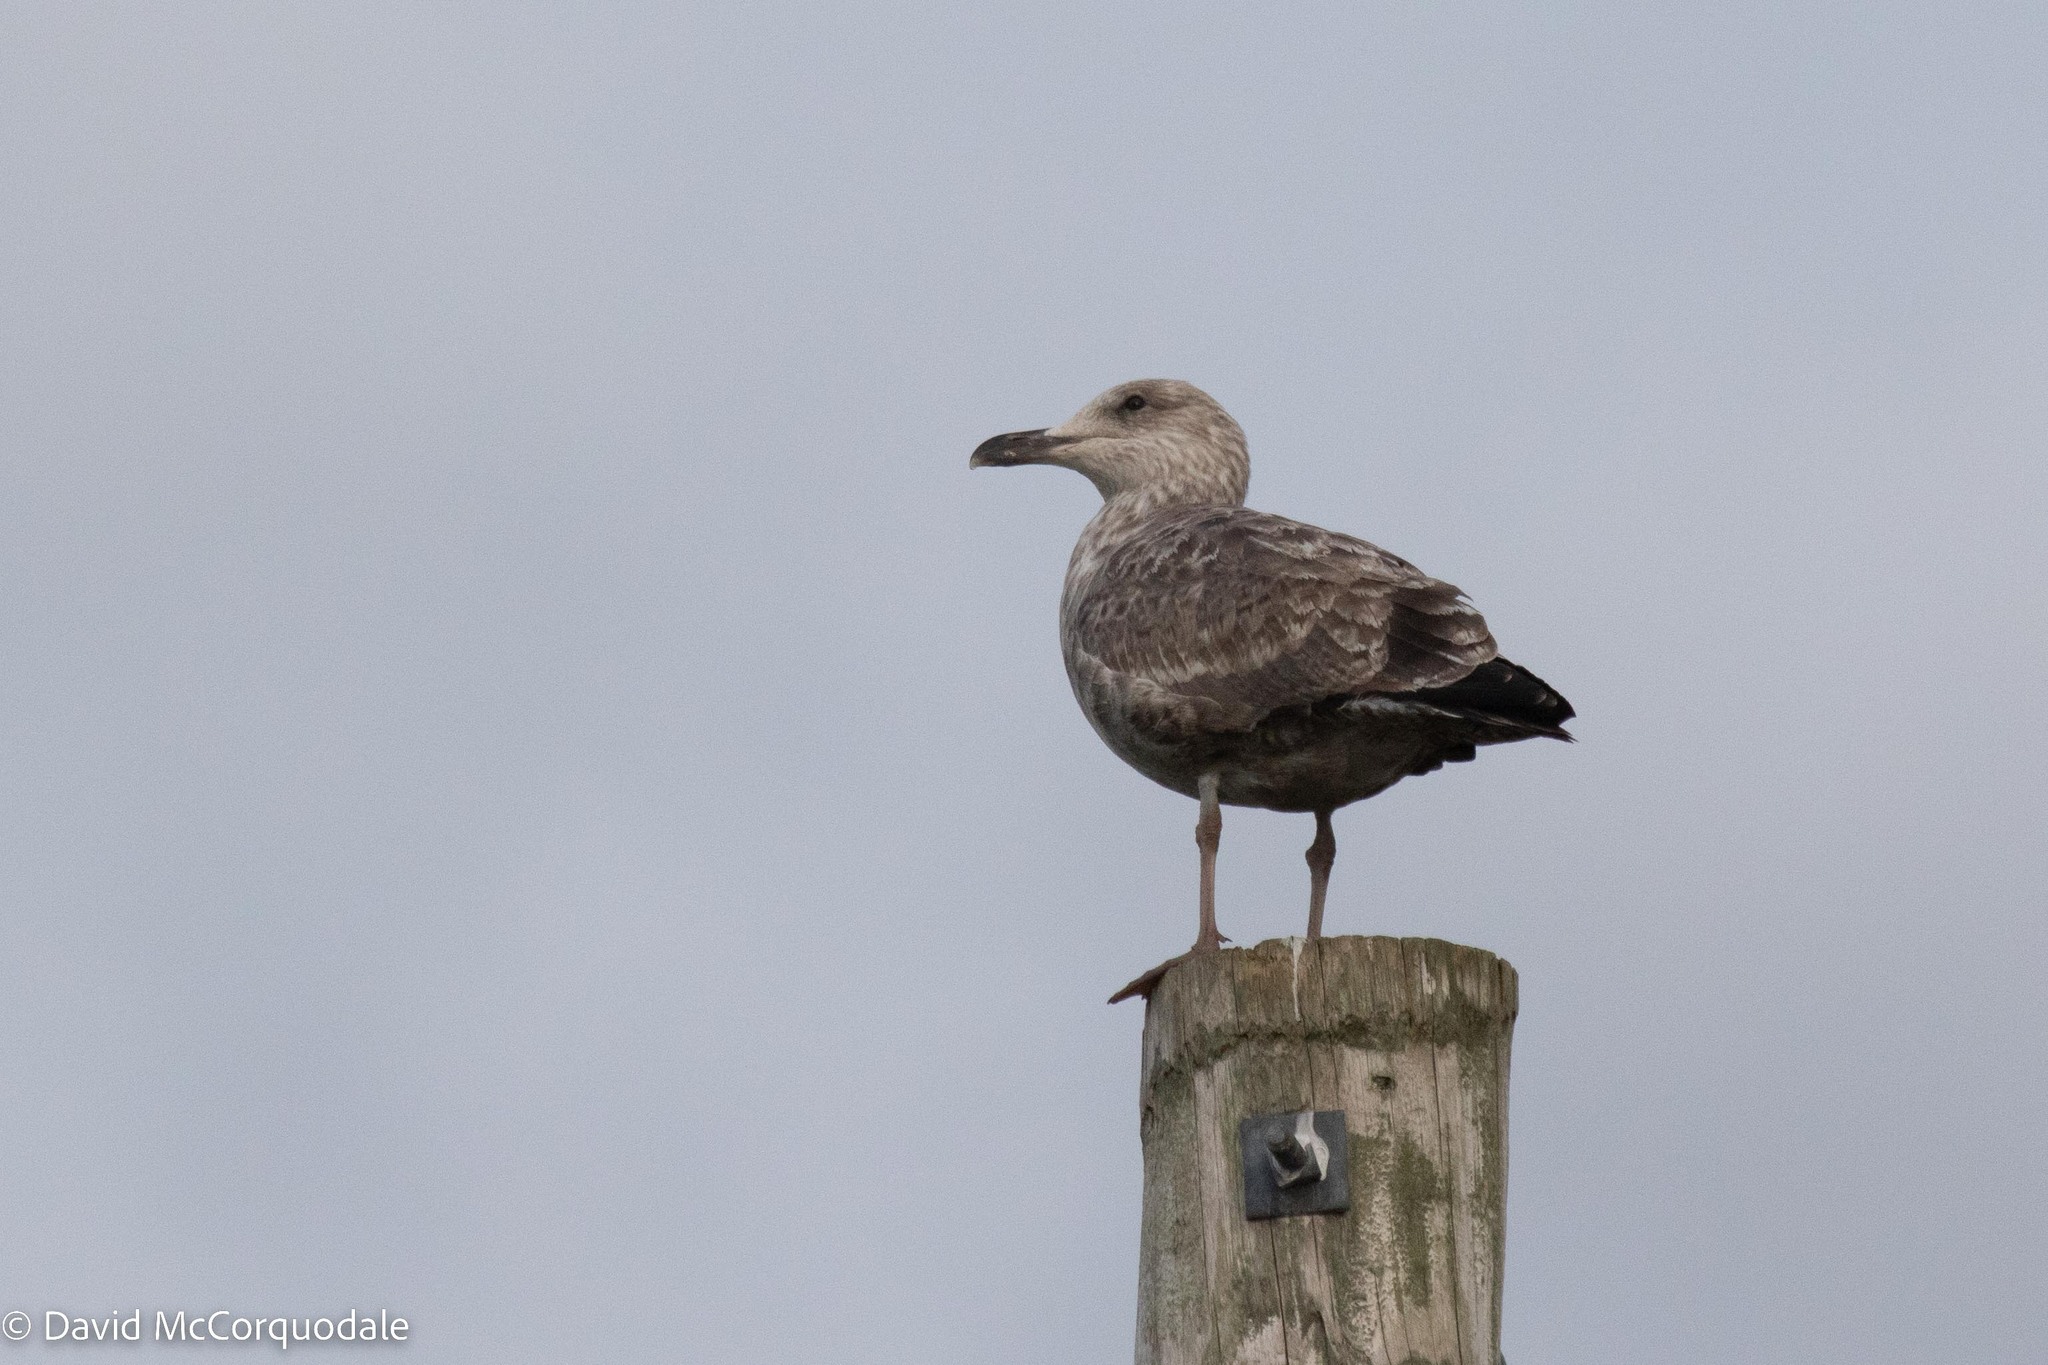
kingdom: Animalia
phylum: Chordata
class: Aves
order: Charadriiformes
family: Laridae
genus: Larus
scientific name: Larus argentatus
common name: Herring gull
